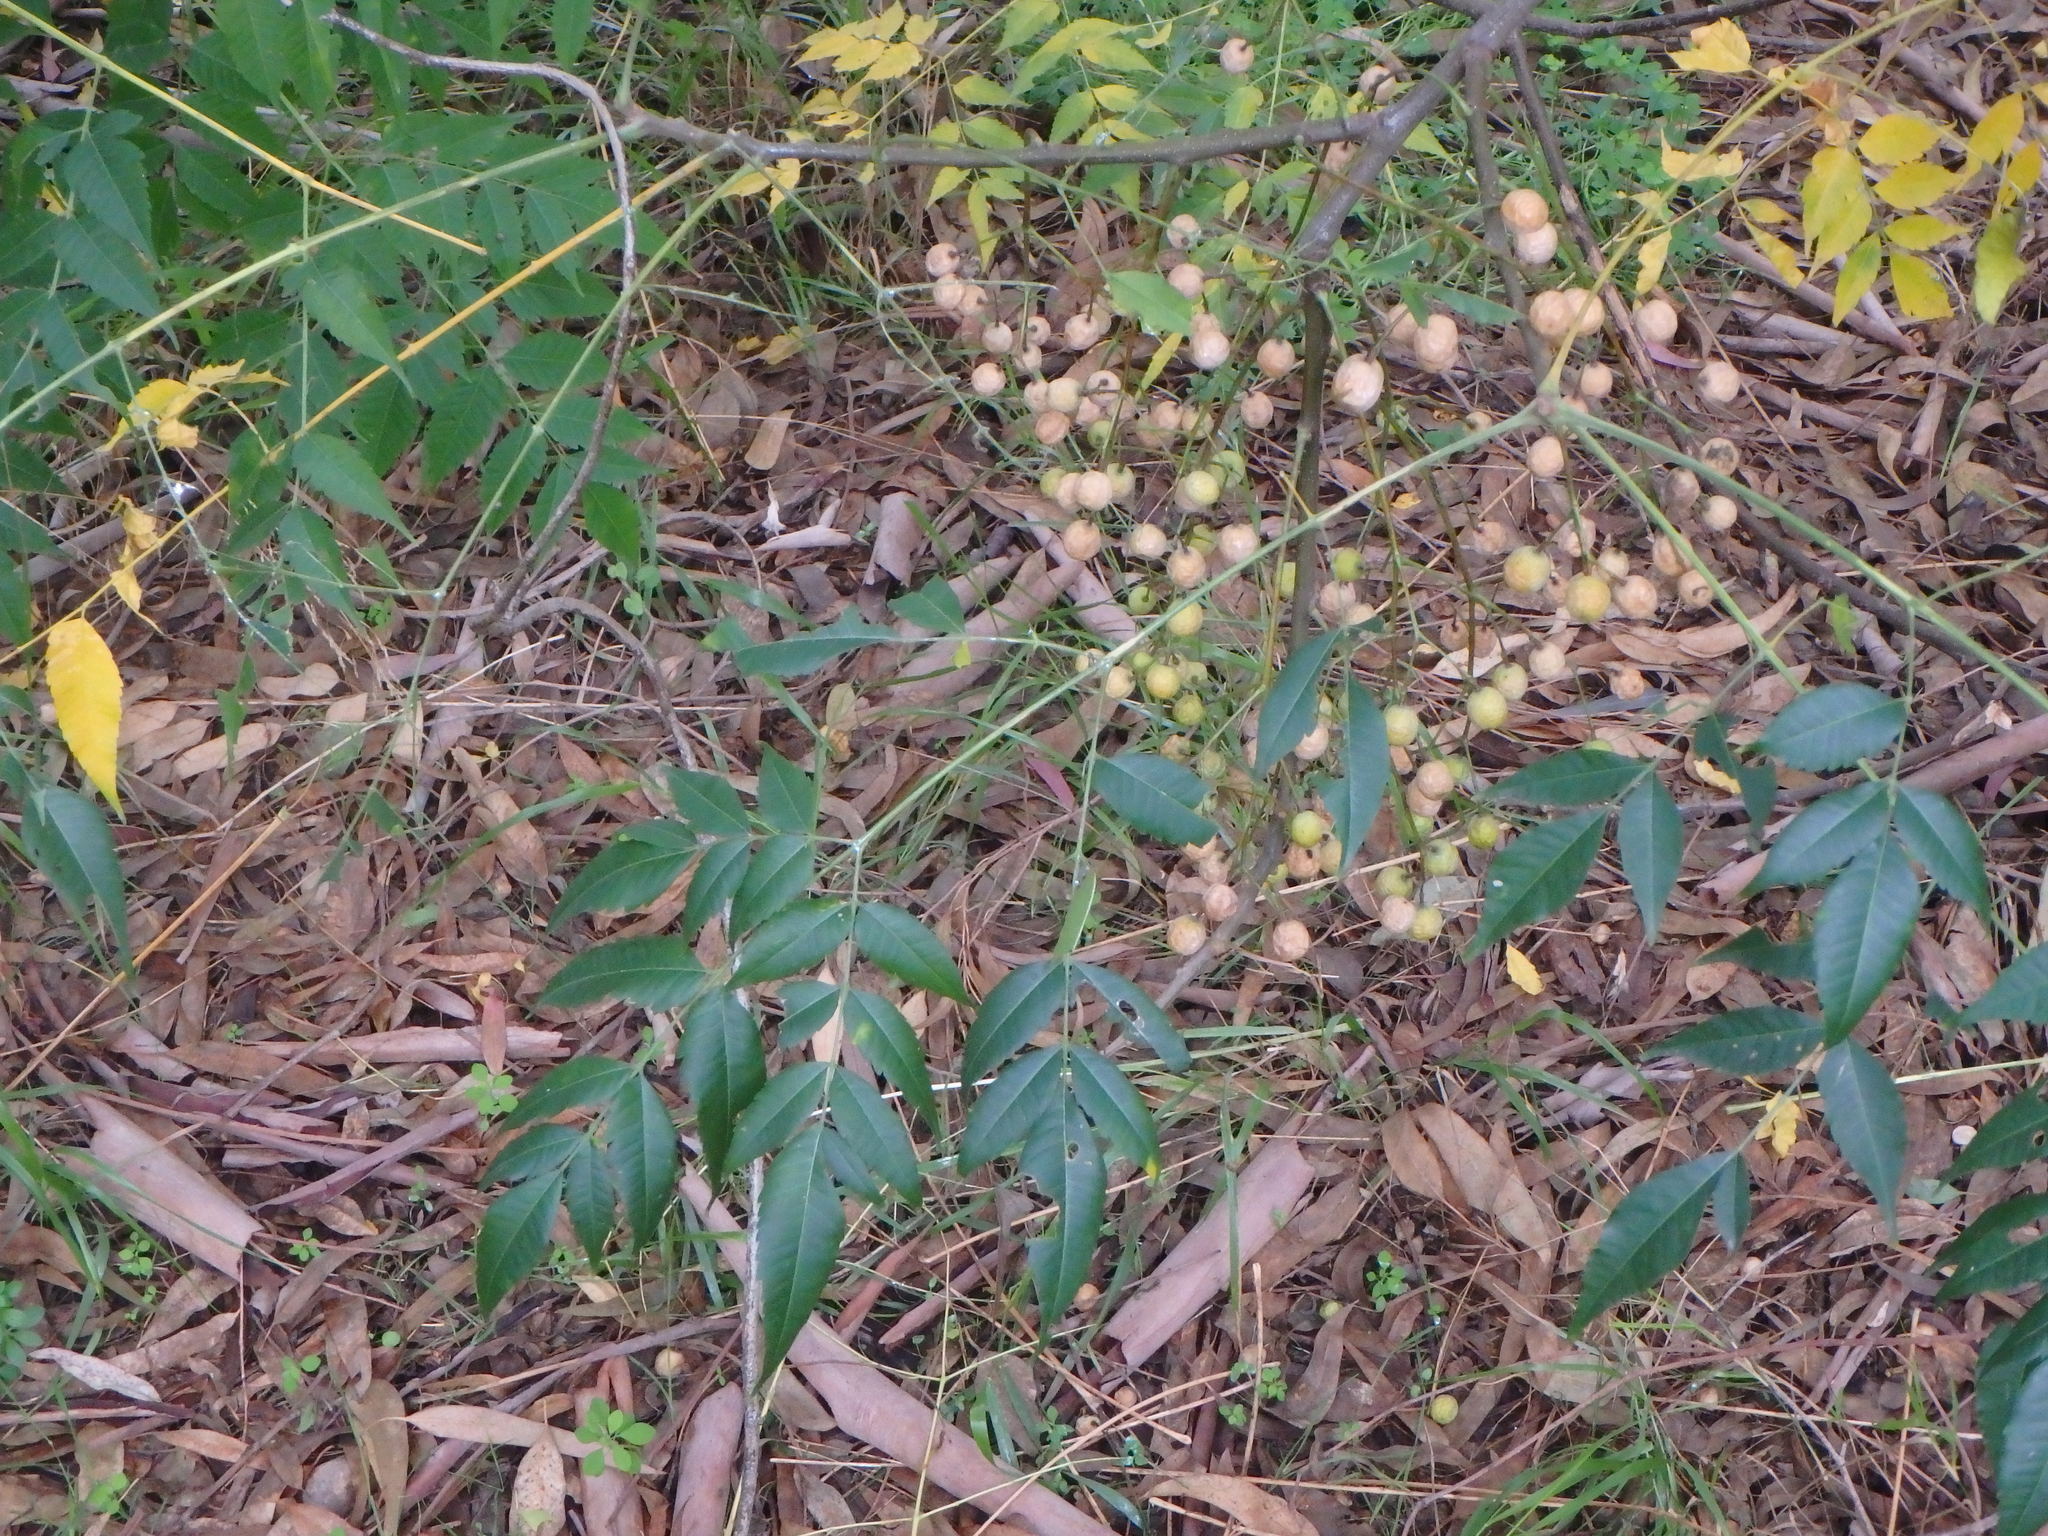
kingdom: Plantae
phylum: Tracheophyta
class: Magnoliopsida
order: Sapindales
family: Meliaceae
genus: Melia
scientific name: Melia azedarach
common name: Chinaberrytree
